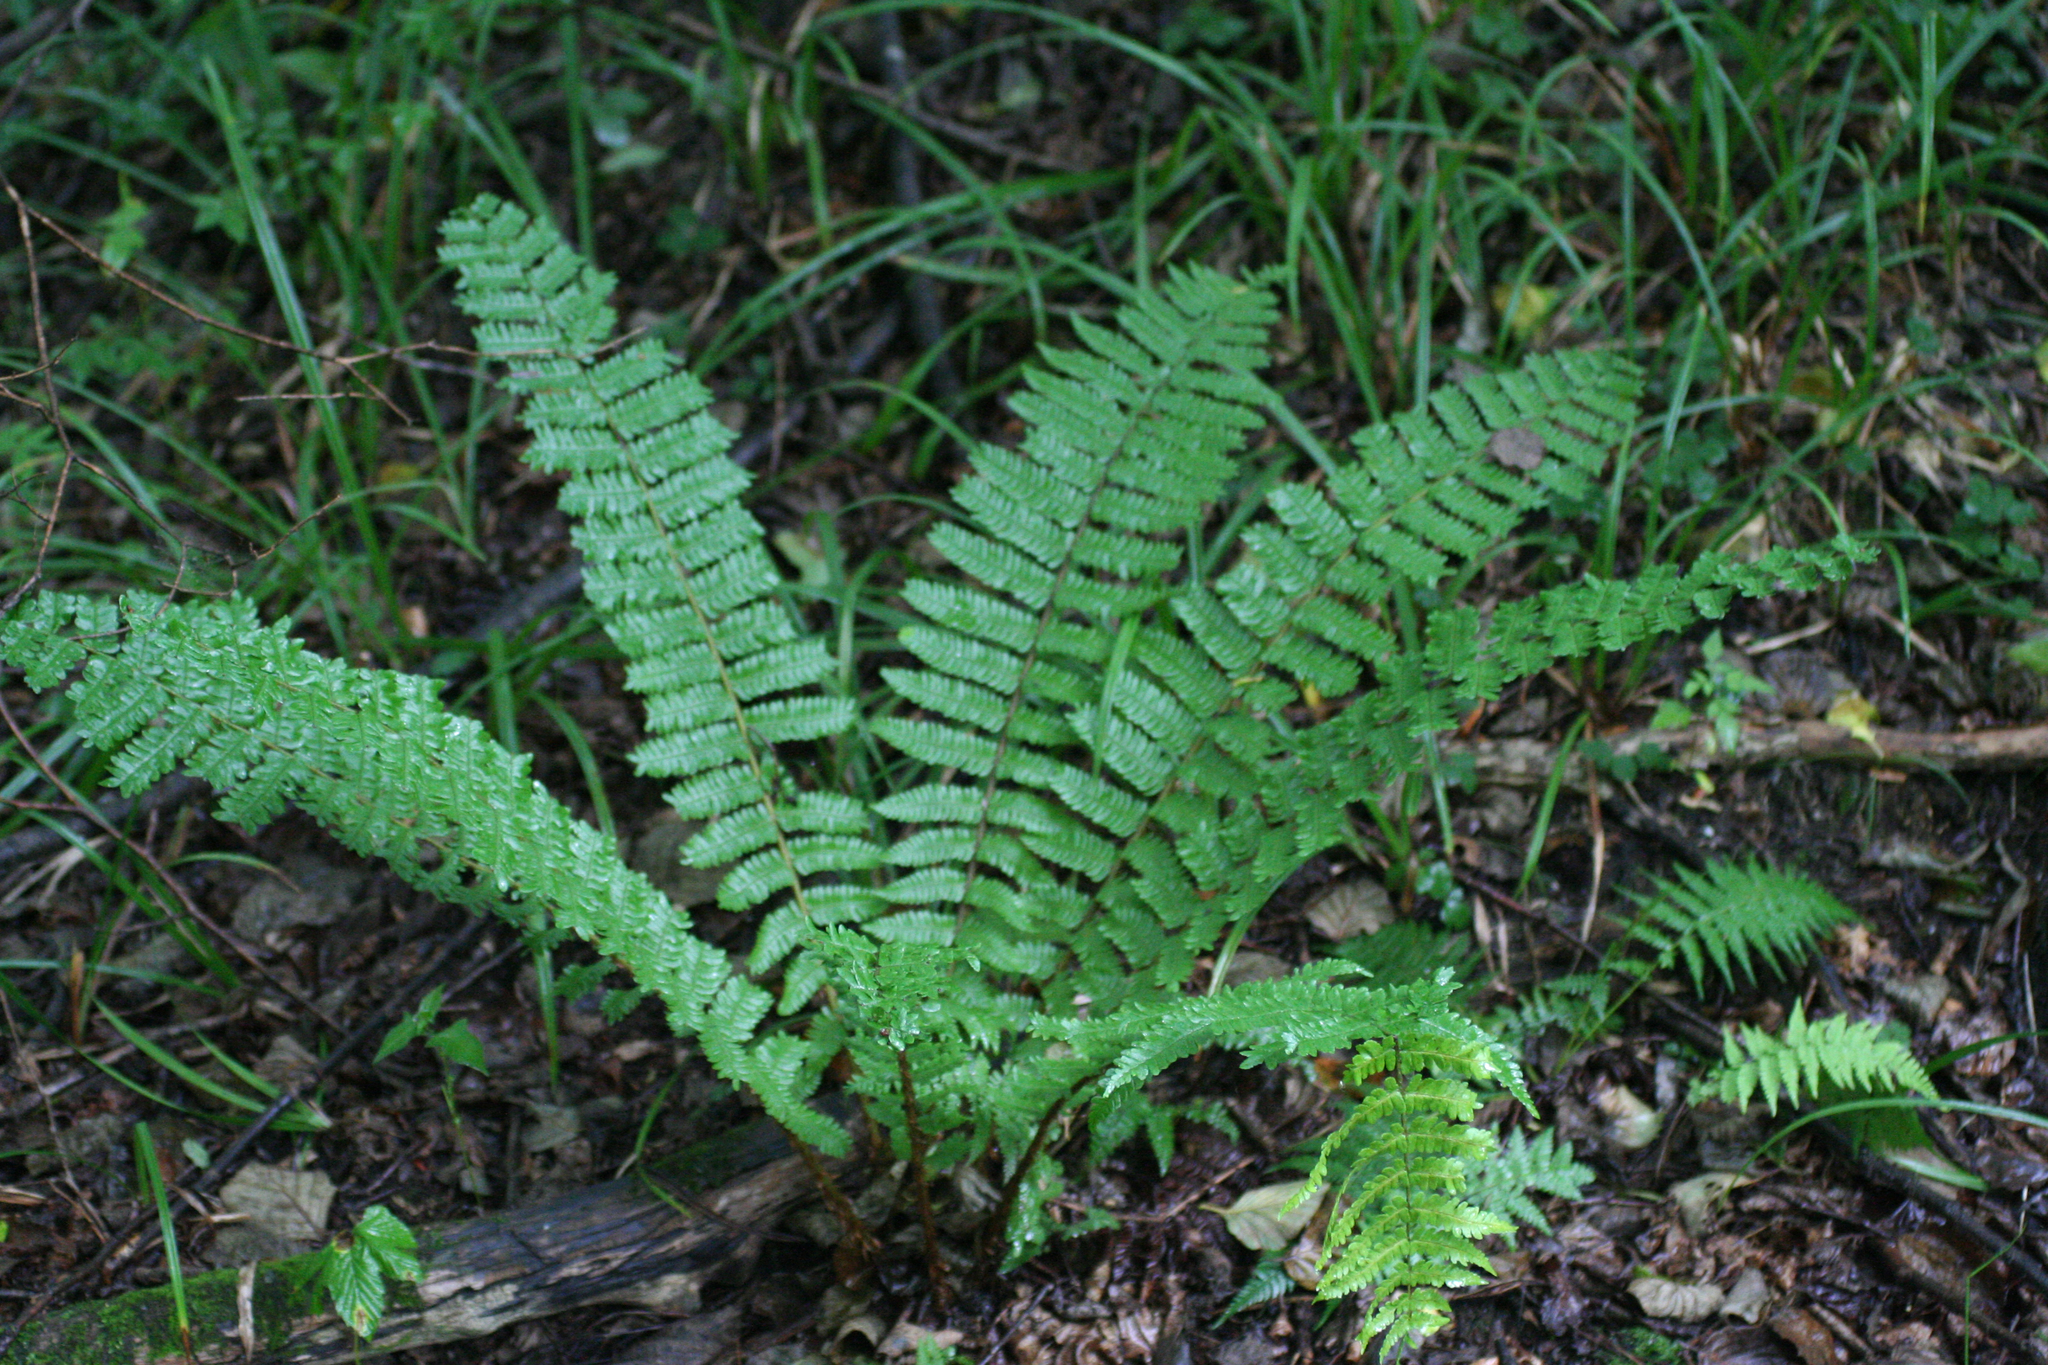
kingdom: Plantae
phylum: Tracheophyta
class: Polypodiopsida
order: Polypodiales
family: Dryopteridaceae
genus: Dryopteris
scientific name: Dryopteris crassirhizoma
